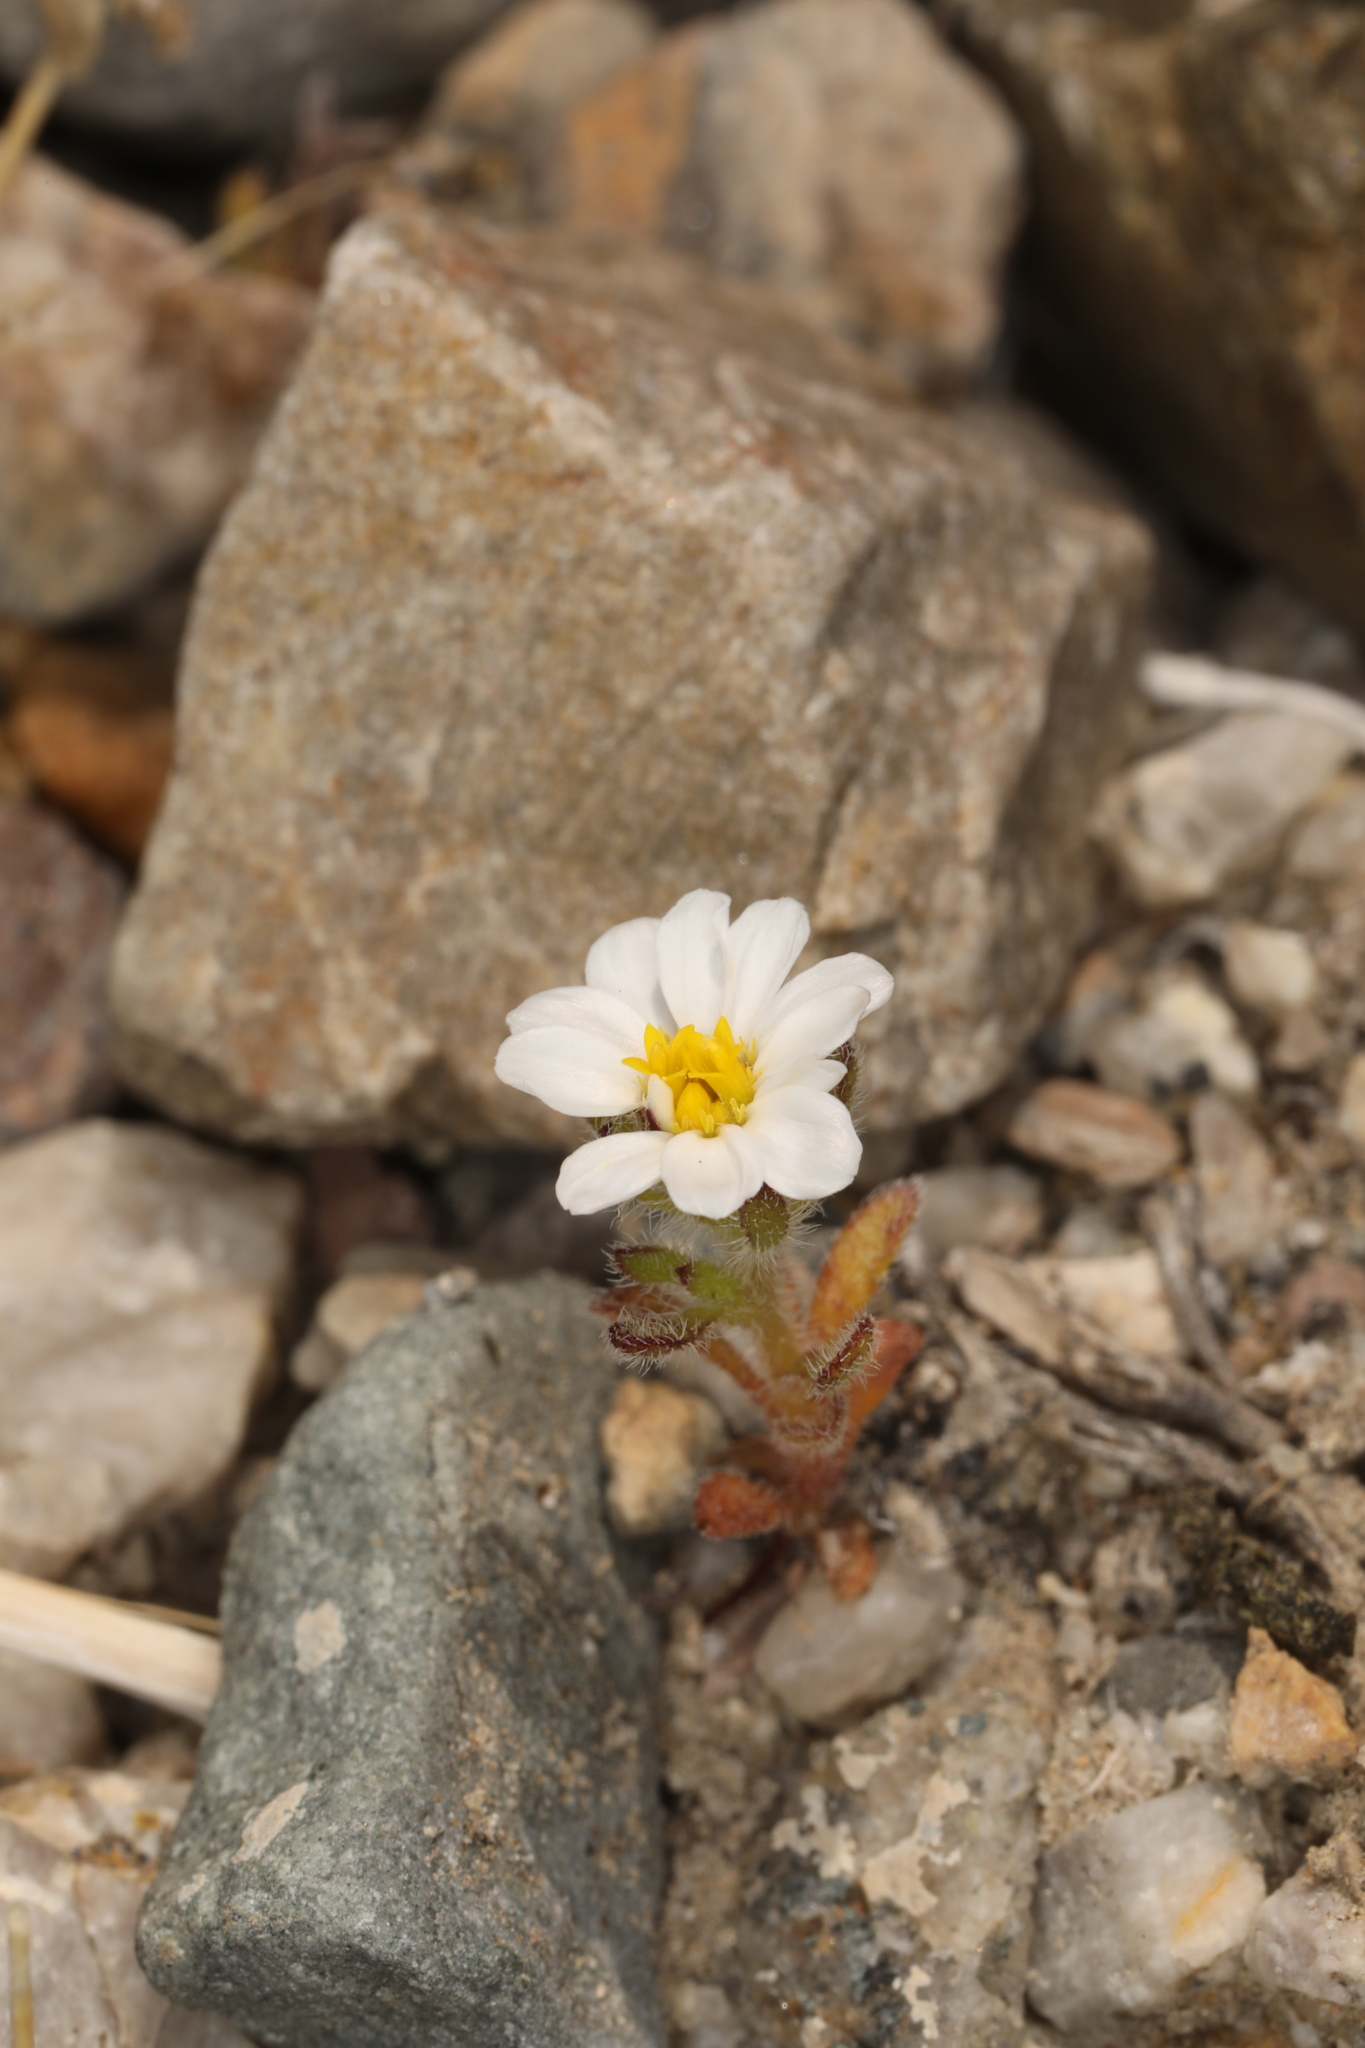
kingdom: Plantae
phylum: Tracheophyta
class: Magnoliopsida
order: Asterales
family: Asteraceae
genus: Monoptilon
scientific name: Monoptilon bellioides
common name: Bristly desertstar
